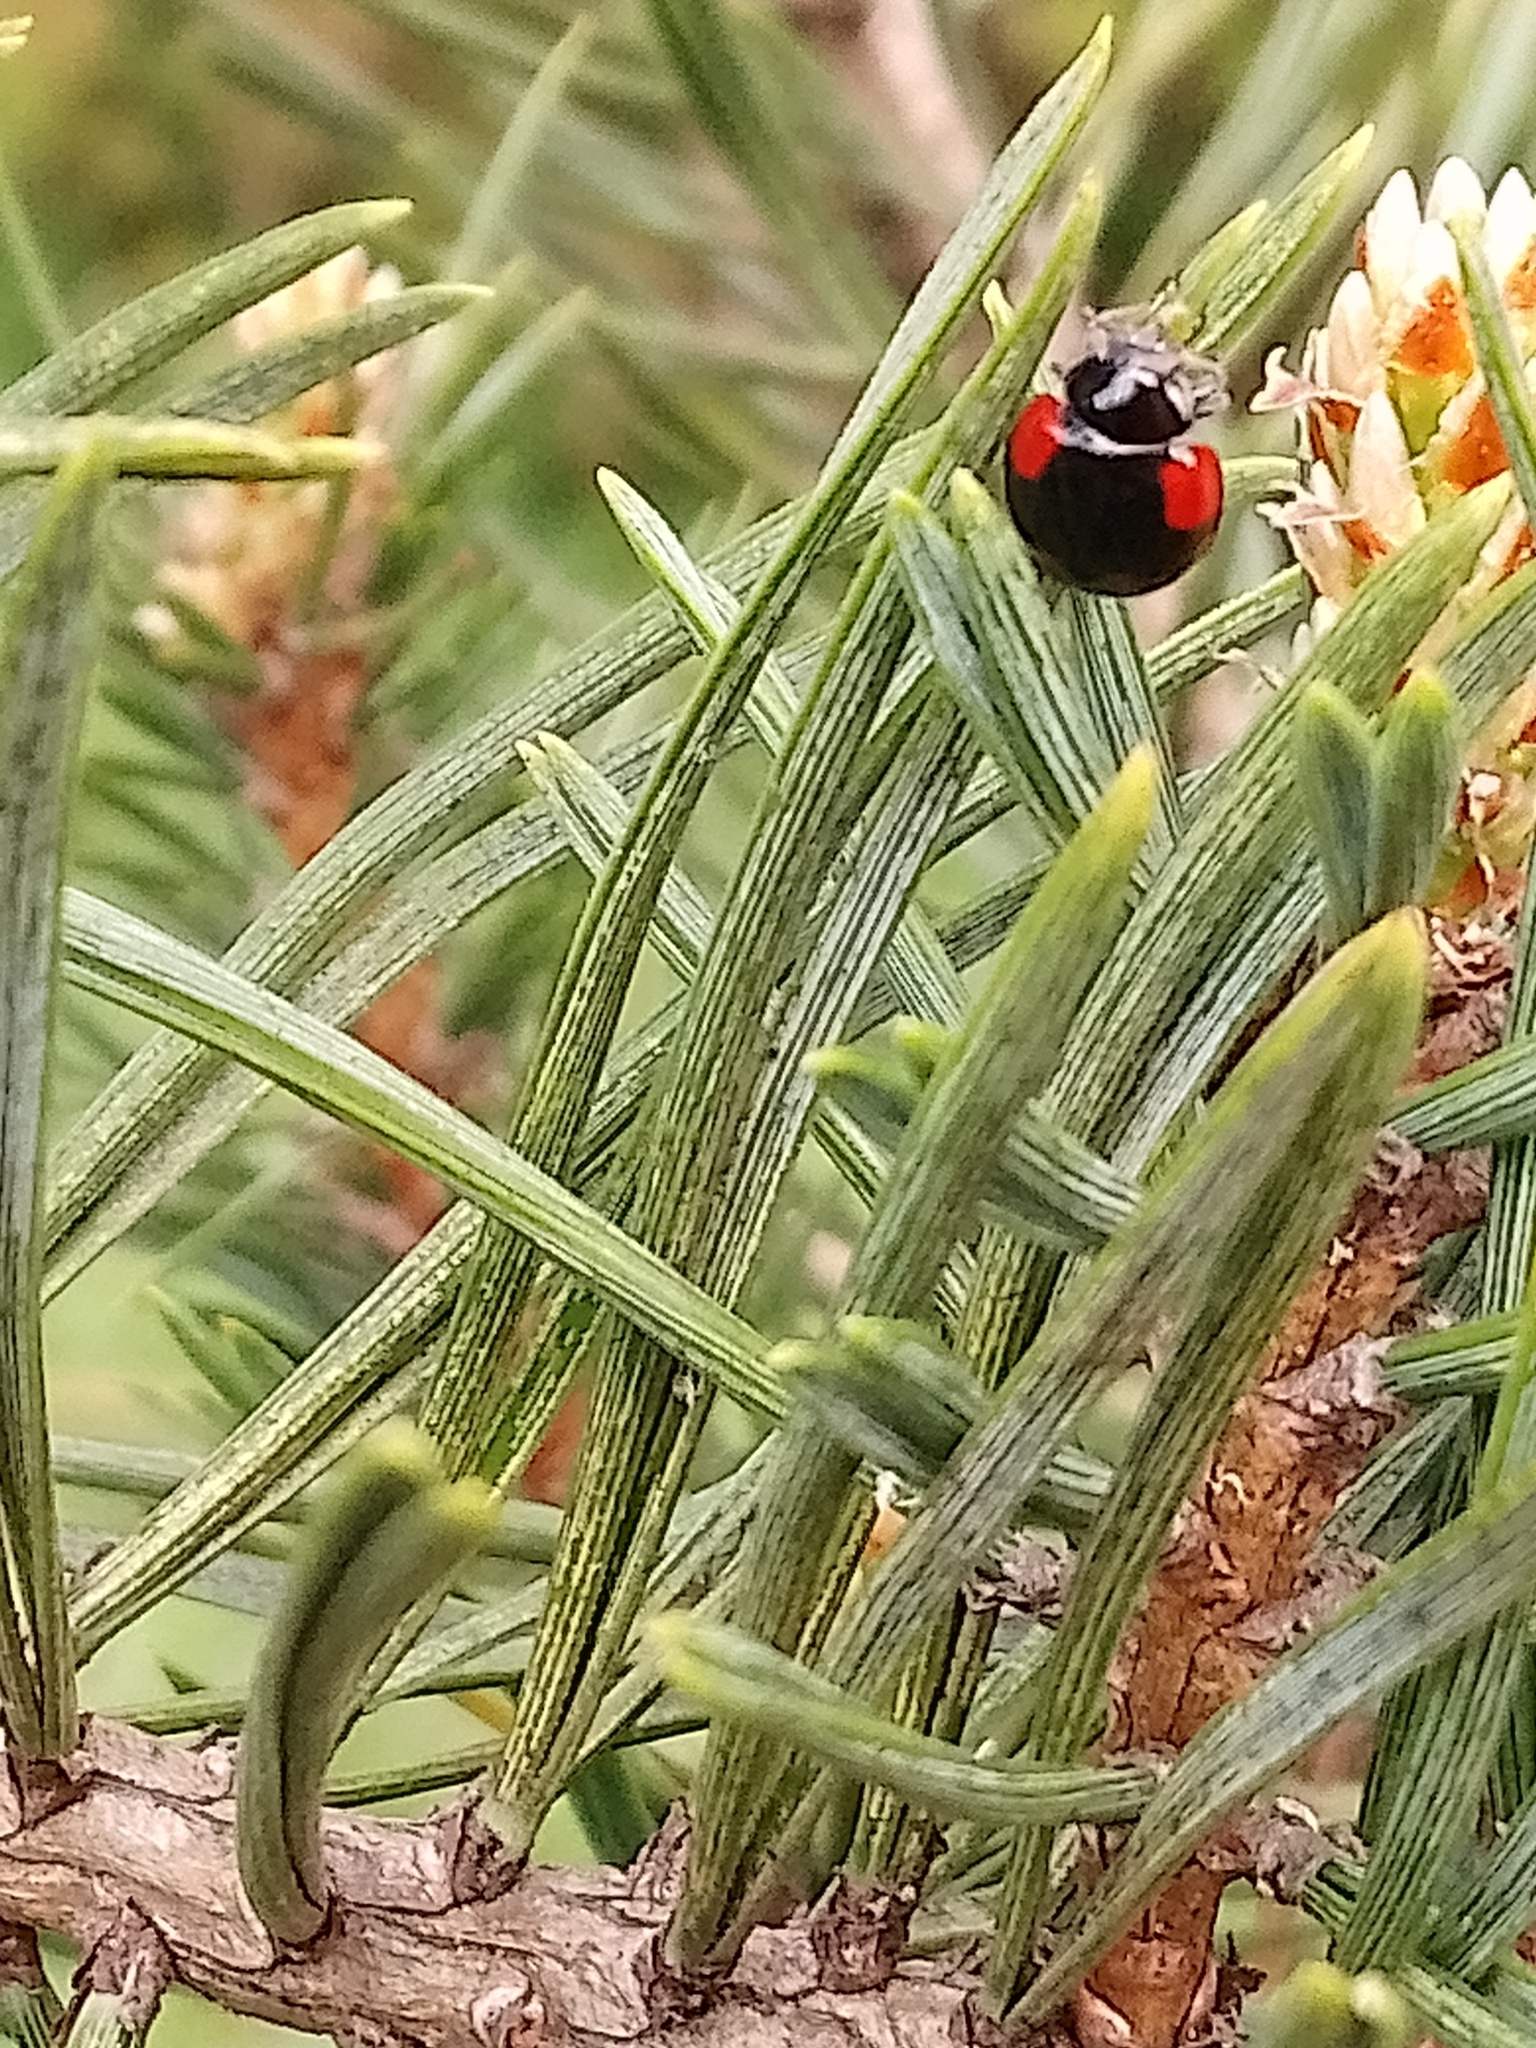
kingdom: Animalia
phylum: Arthropoda
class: Insecta
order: Coleoptera
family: Coccinellidae
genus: Adalia
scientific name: Adalia bipunctata
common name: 2-spot ladybird
